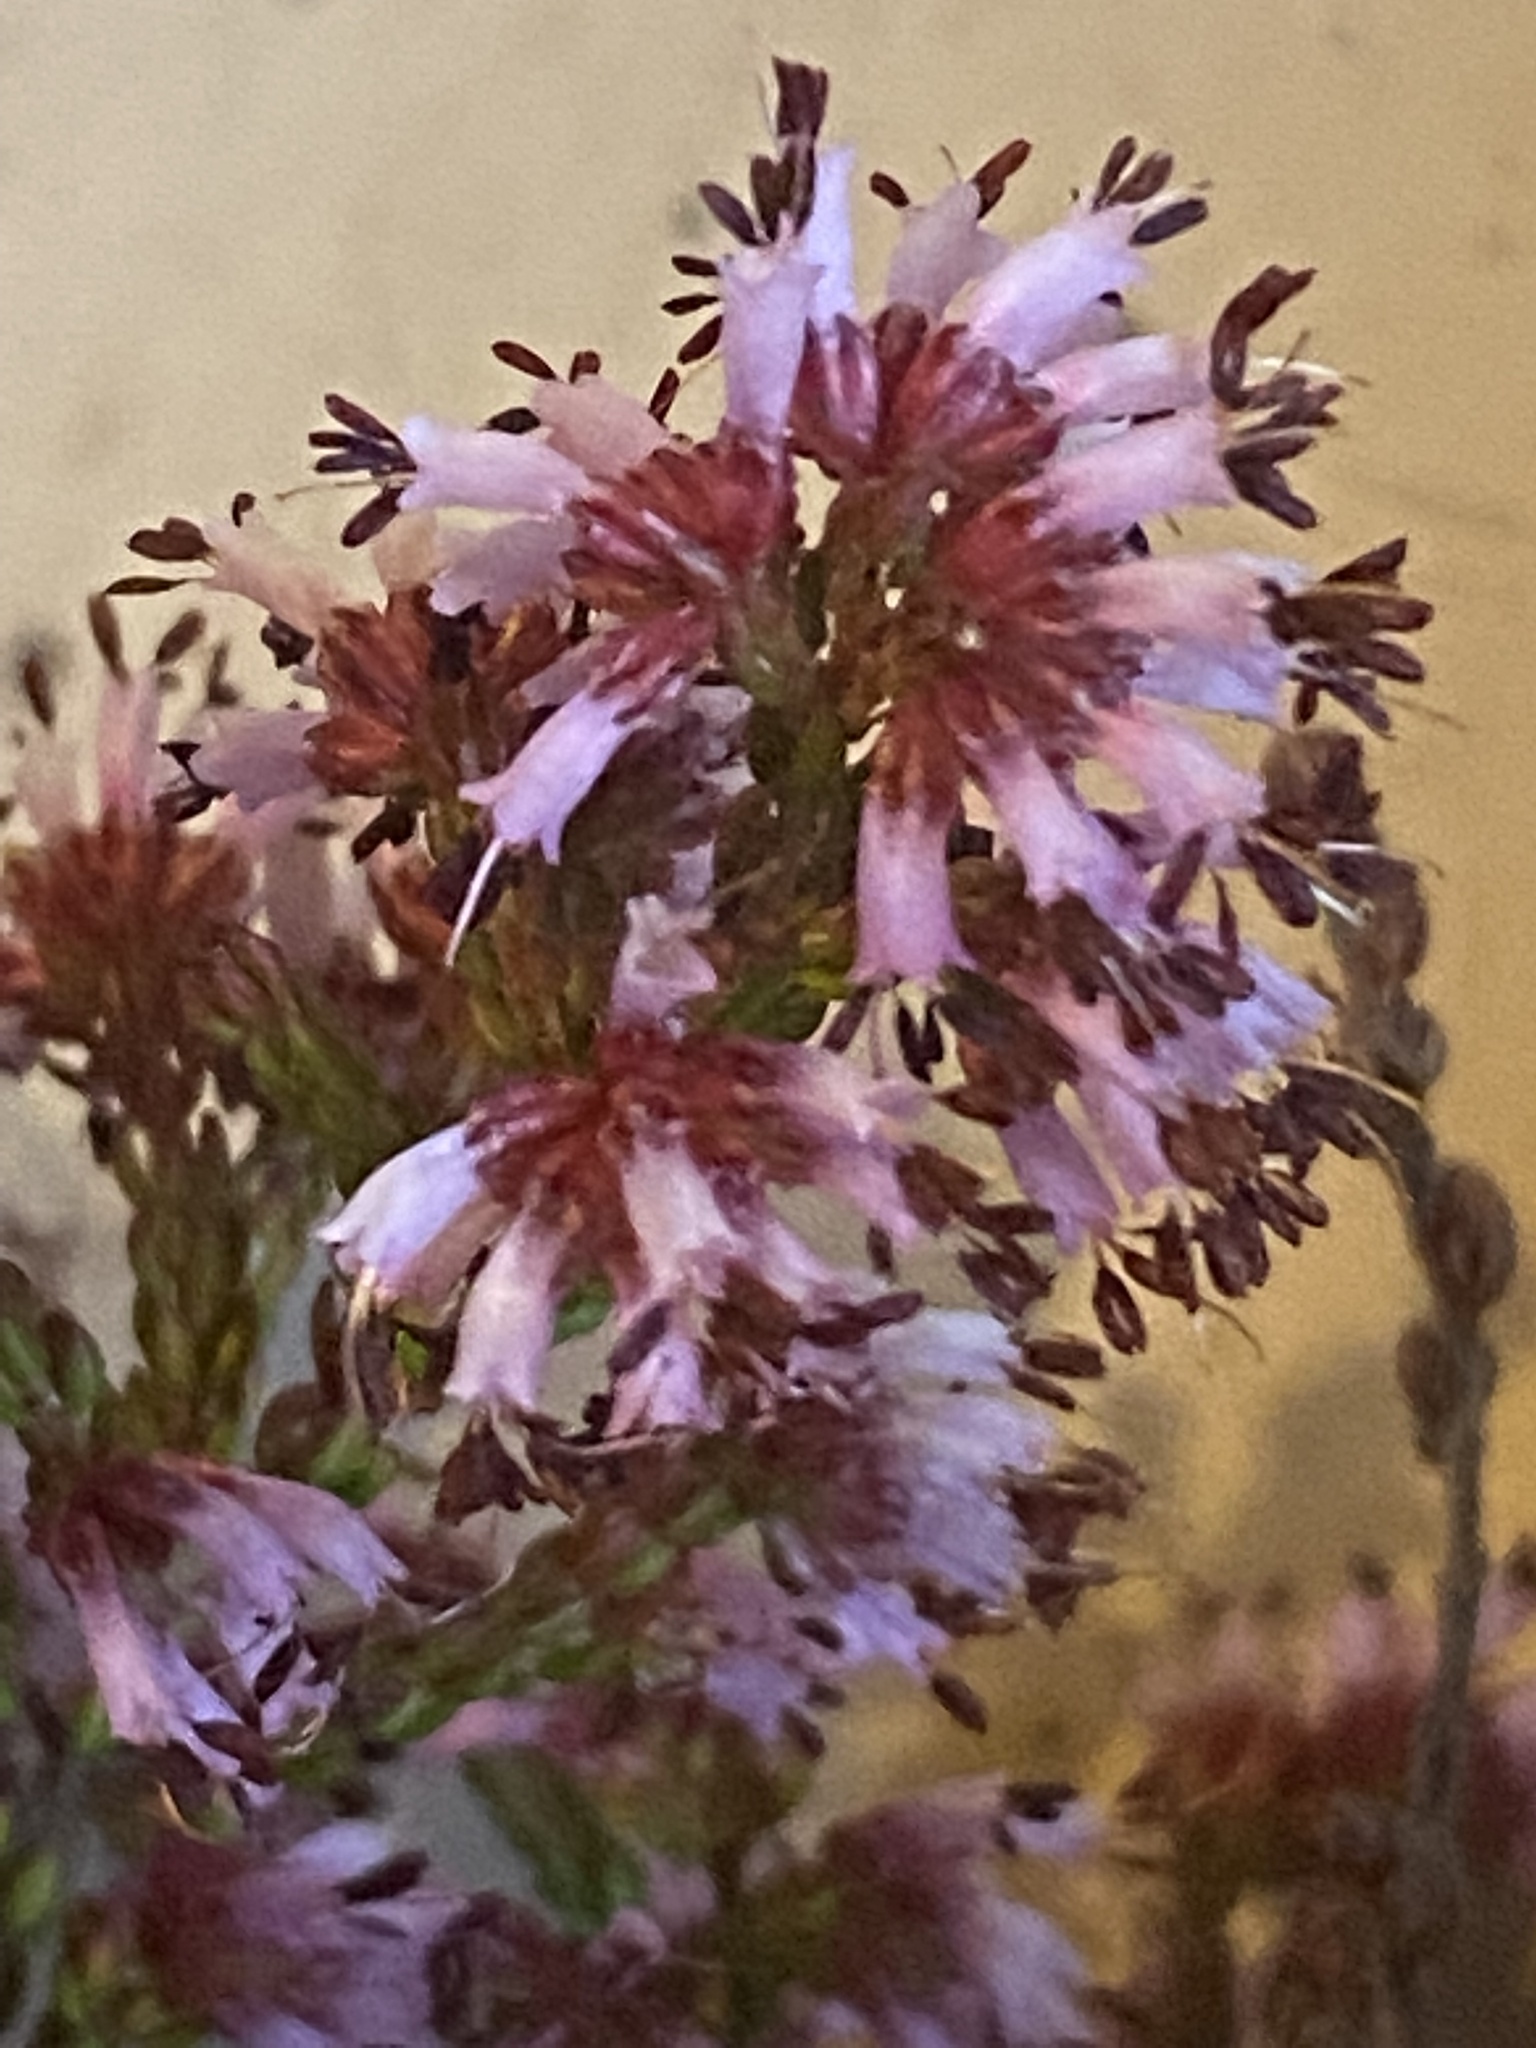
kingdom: Plantae
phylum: Tracheophyta
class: Magnoliopsida
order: Ericales
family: Ericaceae
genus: Erica
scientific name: Erica uberiflora
